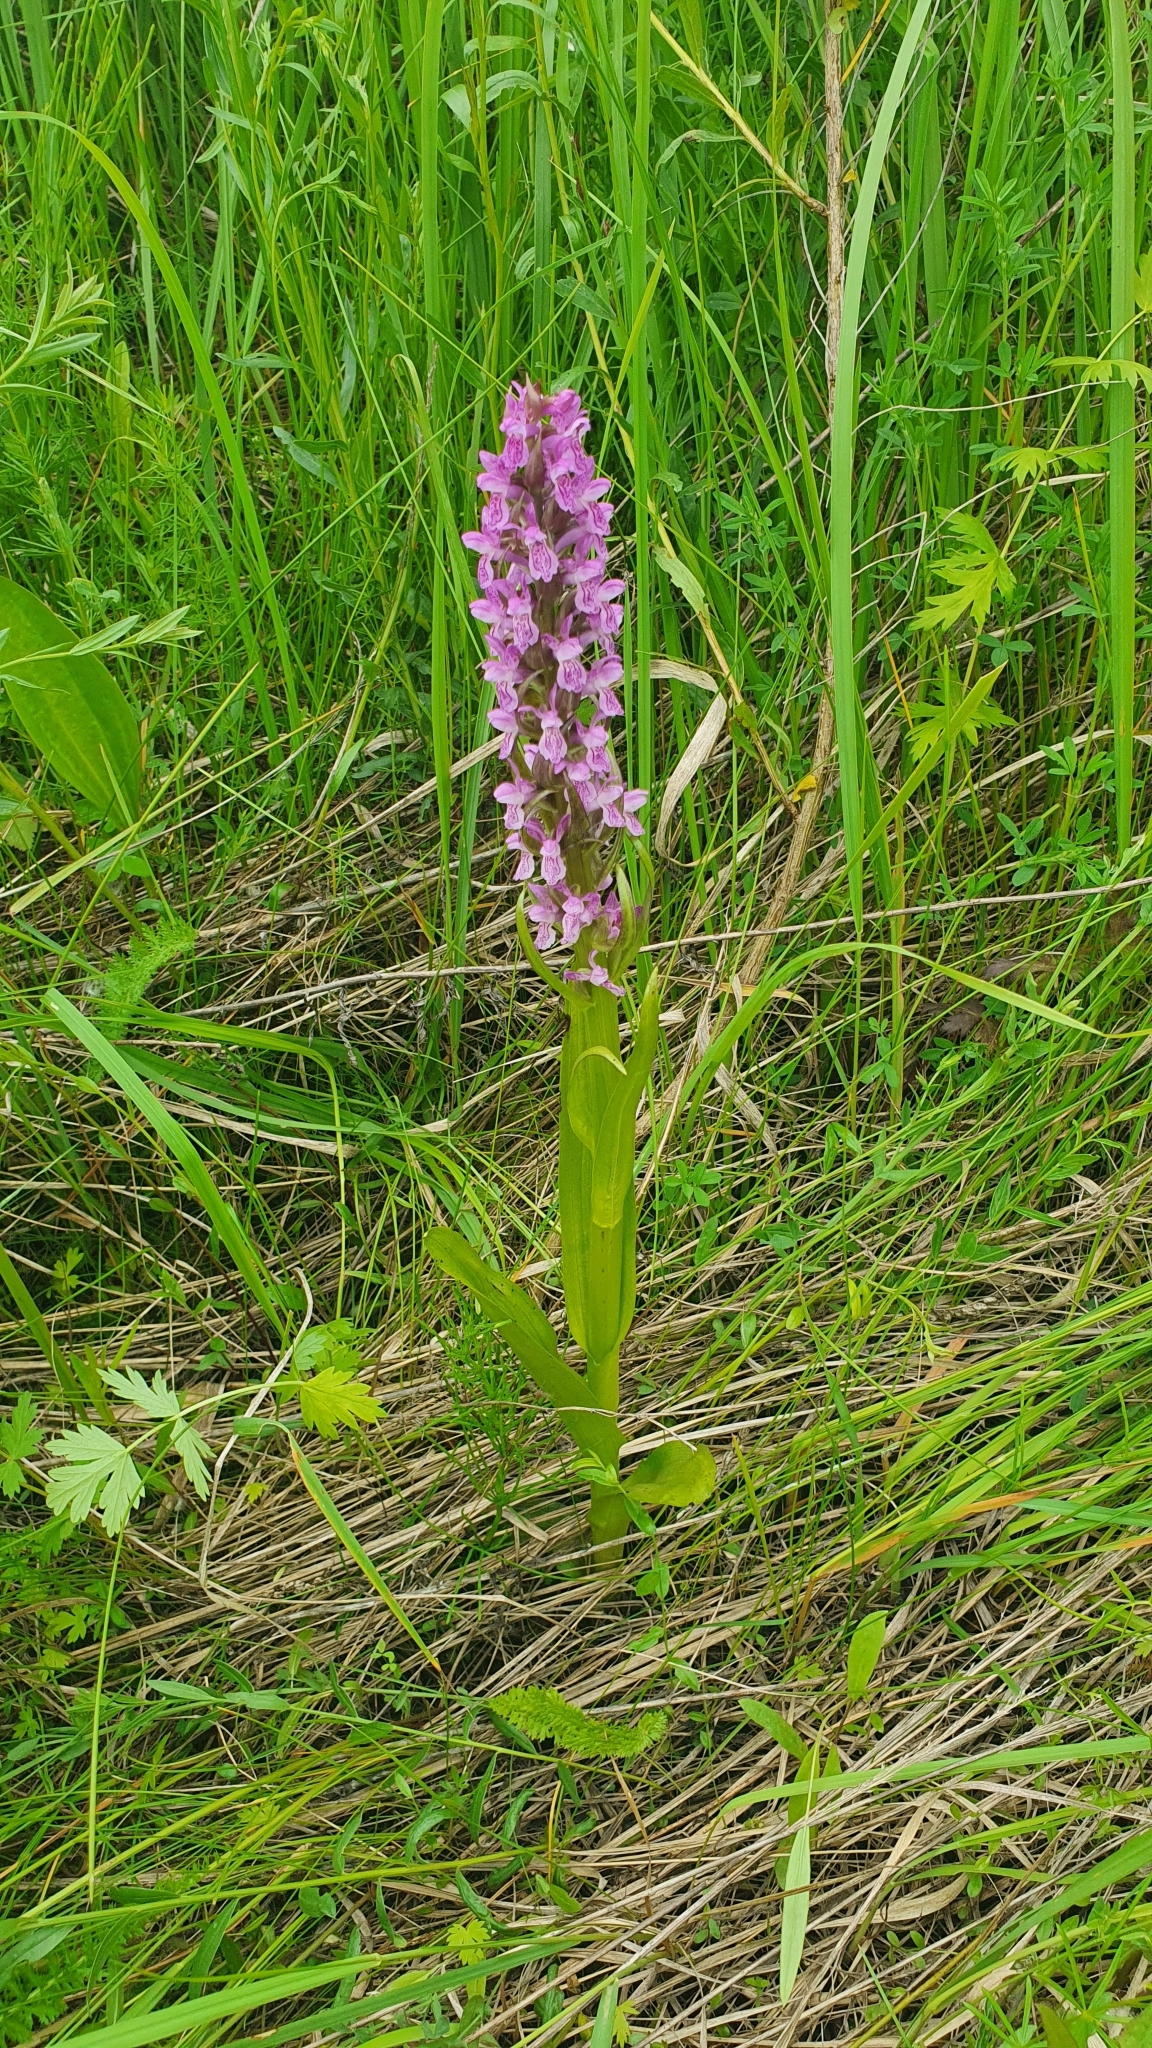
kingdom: Plantae
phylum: Tracheophyta
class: Liliopsida
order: Asparagales
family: Orchidaceae
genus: Dactylorhiza
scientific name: Dactylorhiza incarnata
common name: Early marsh-orchid
